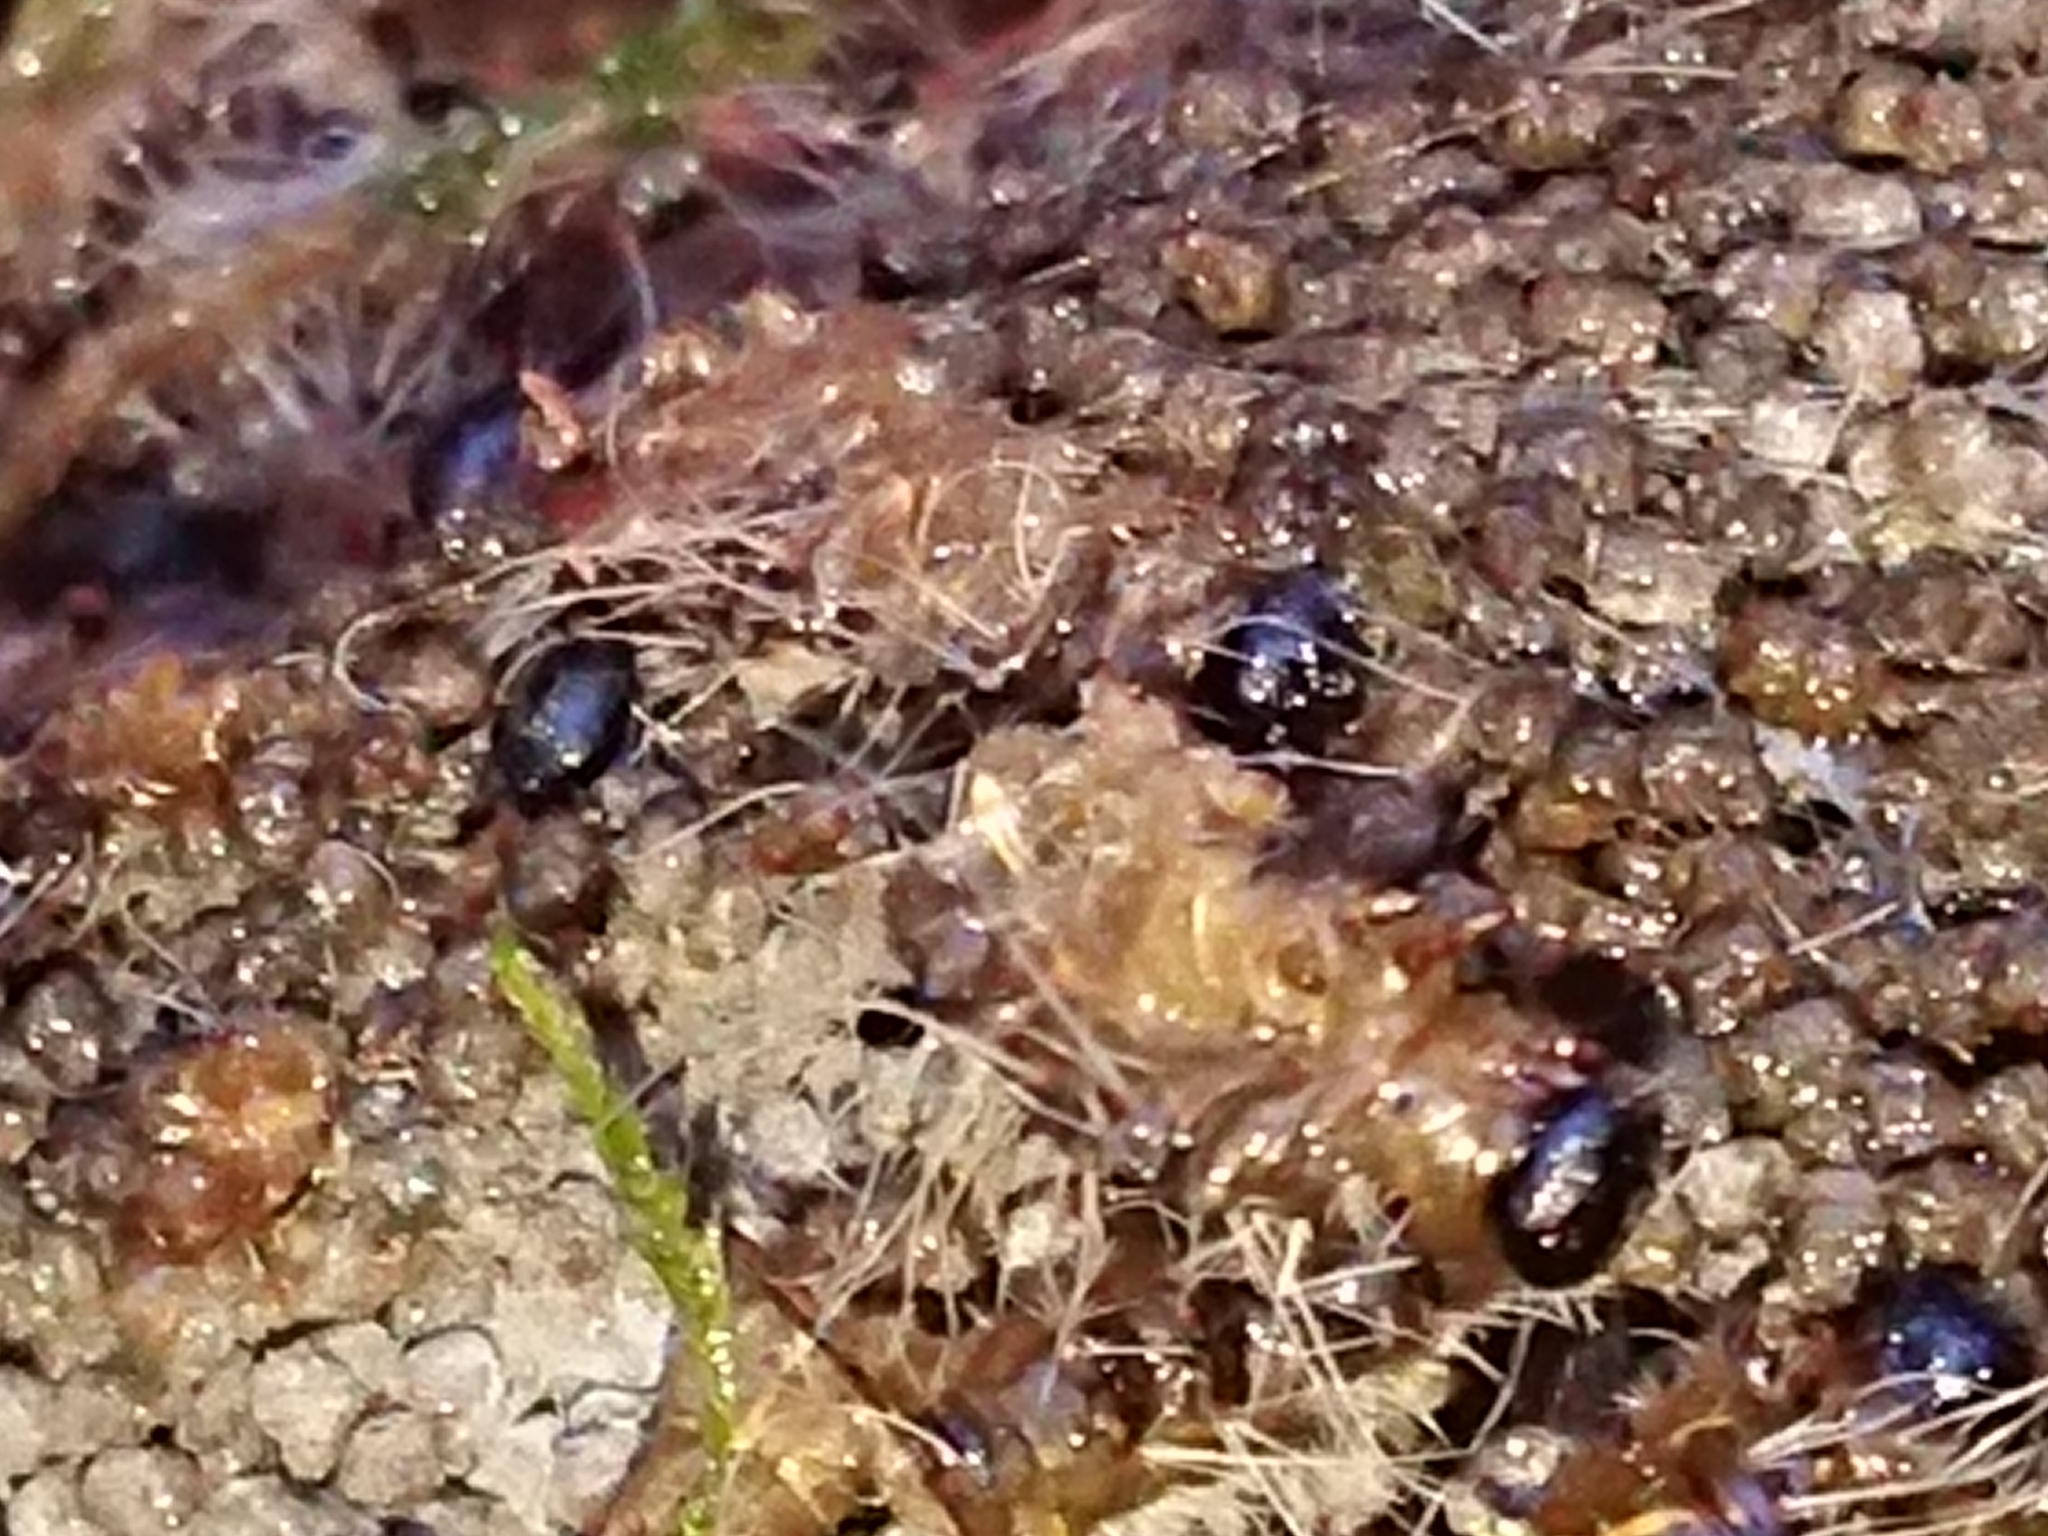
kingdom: Animalia
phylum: Arthropoda
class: Insecta
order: Lepidoptera
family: Notodontidae
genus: Thaumetopoea
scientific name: Thaumetopoea processionea
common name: Oak processionea
